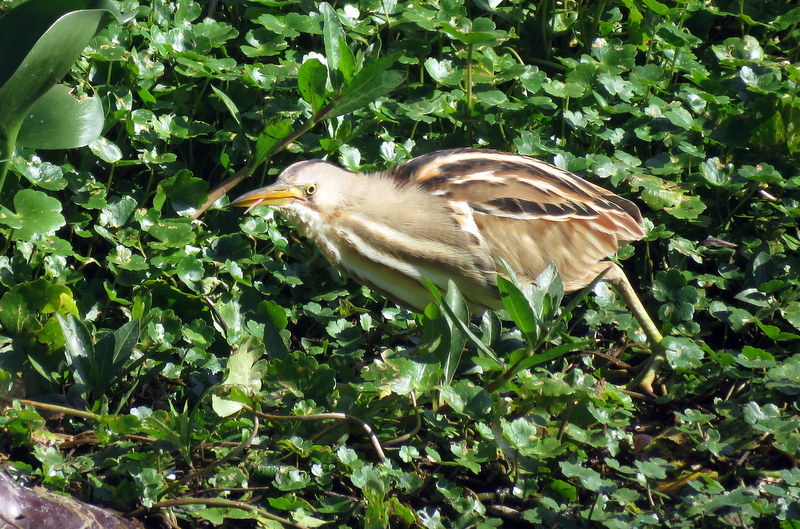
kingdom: Animalia
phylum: Chordata
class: Aves
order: Pelecaniformes
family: Ardeidae
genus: Ixobrychus
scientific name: Ixobrychus involucris
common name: Stripe-backed bittern
